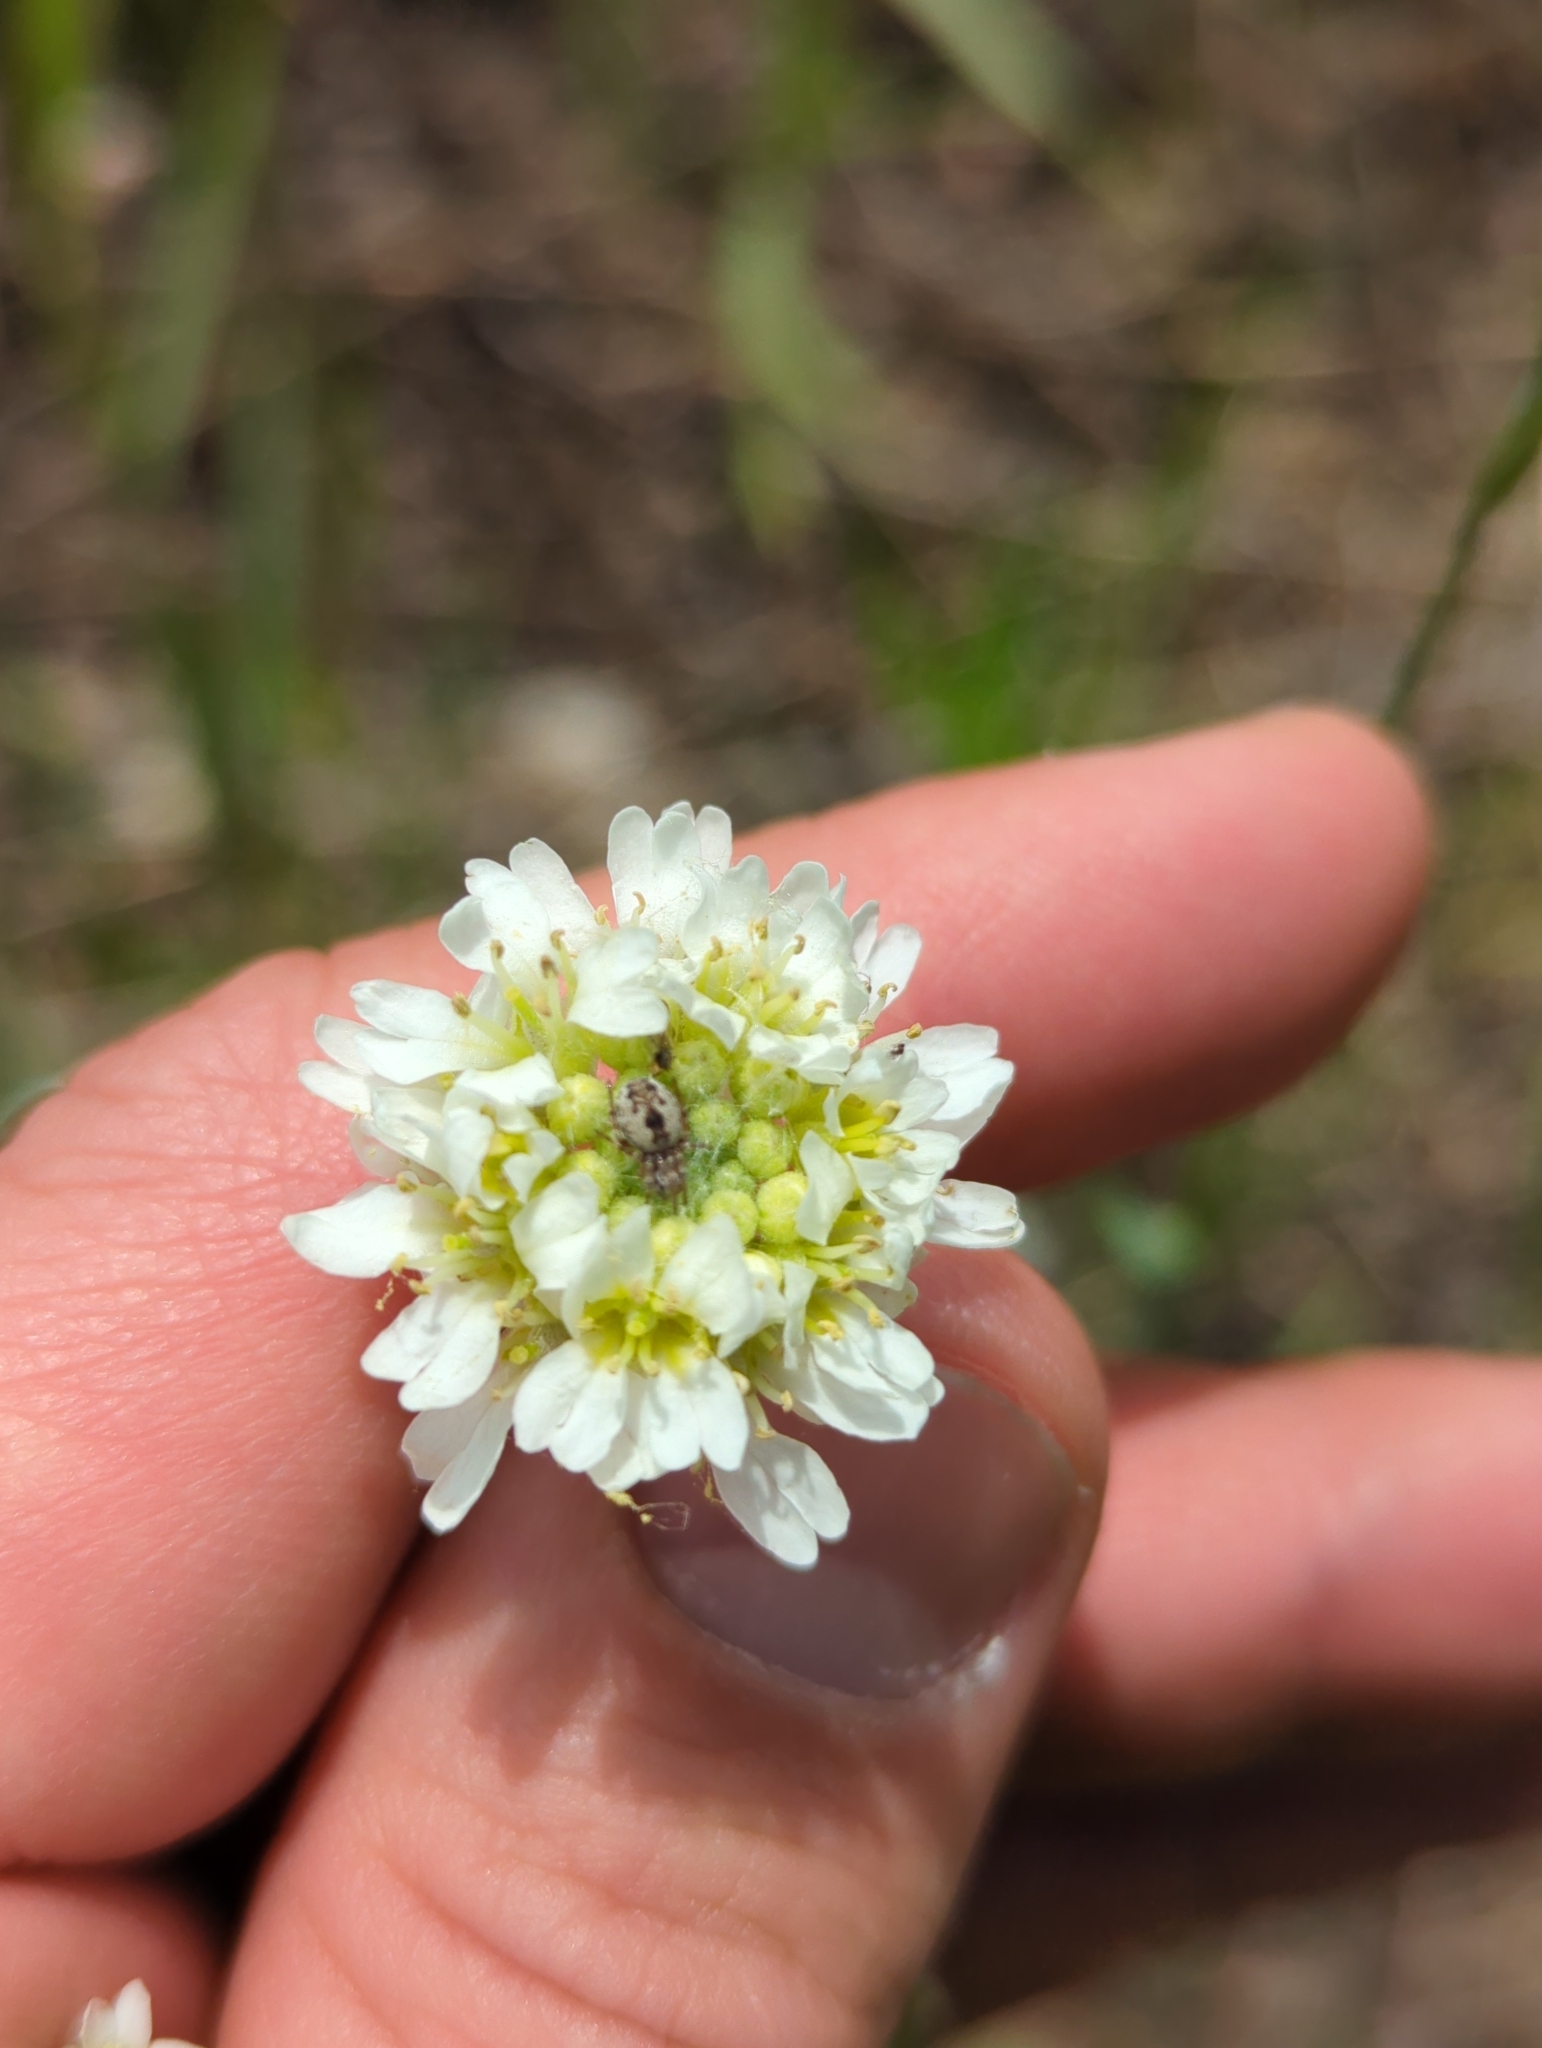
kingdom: Plantae
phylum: Tracheophyta
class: Magnoliopsida
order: Brassicales
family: Brassicaceae
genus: Berteroa
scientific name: Berteroa incana
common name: Hoary alison
